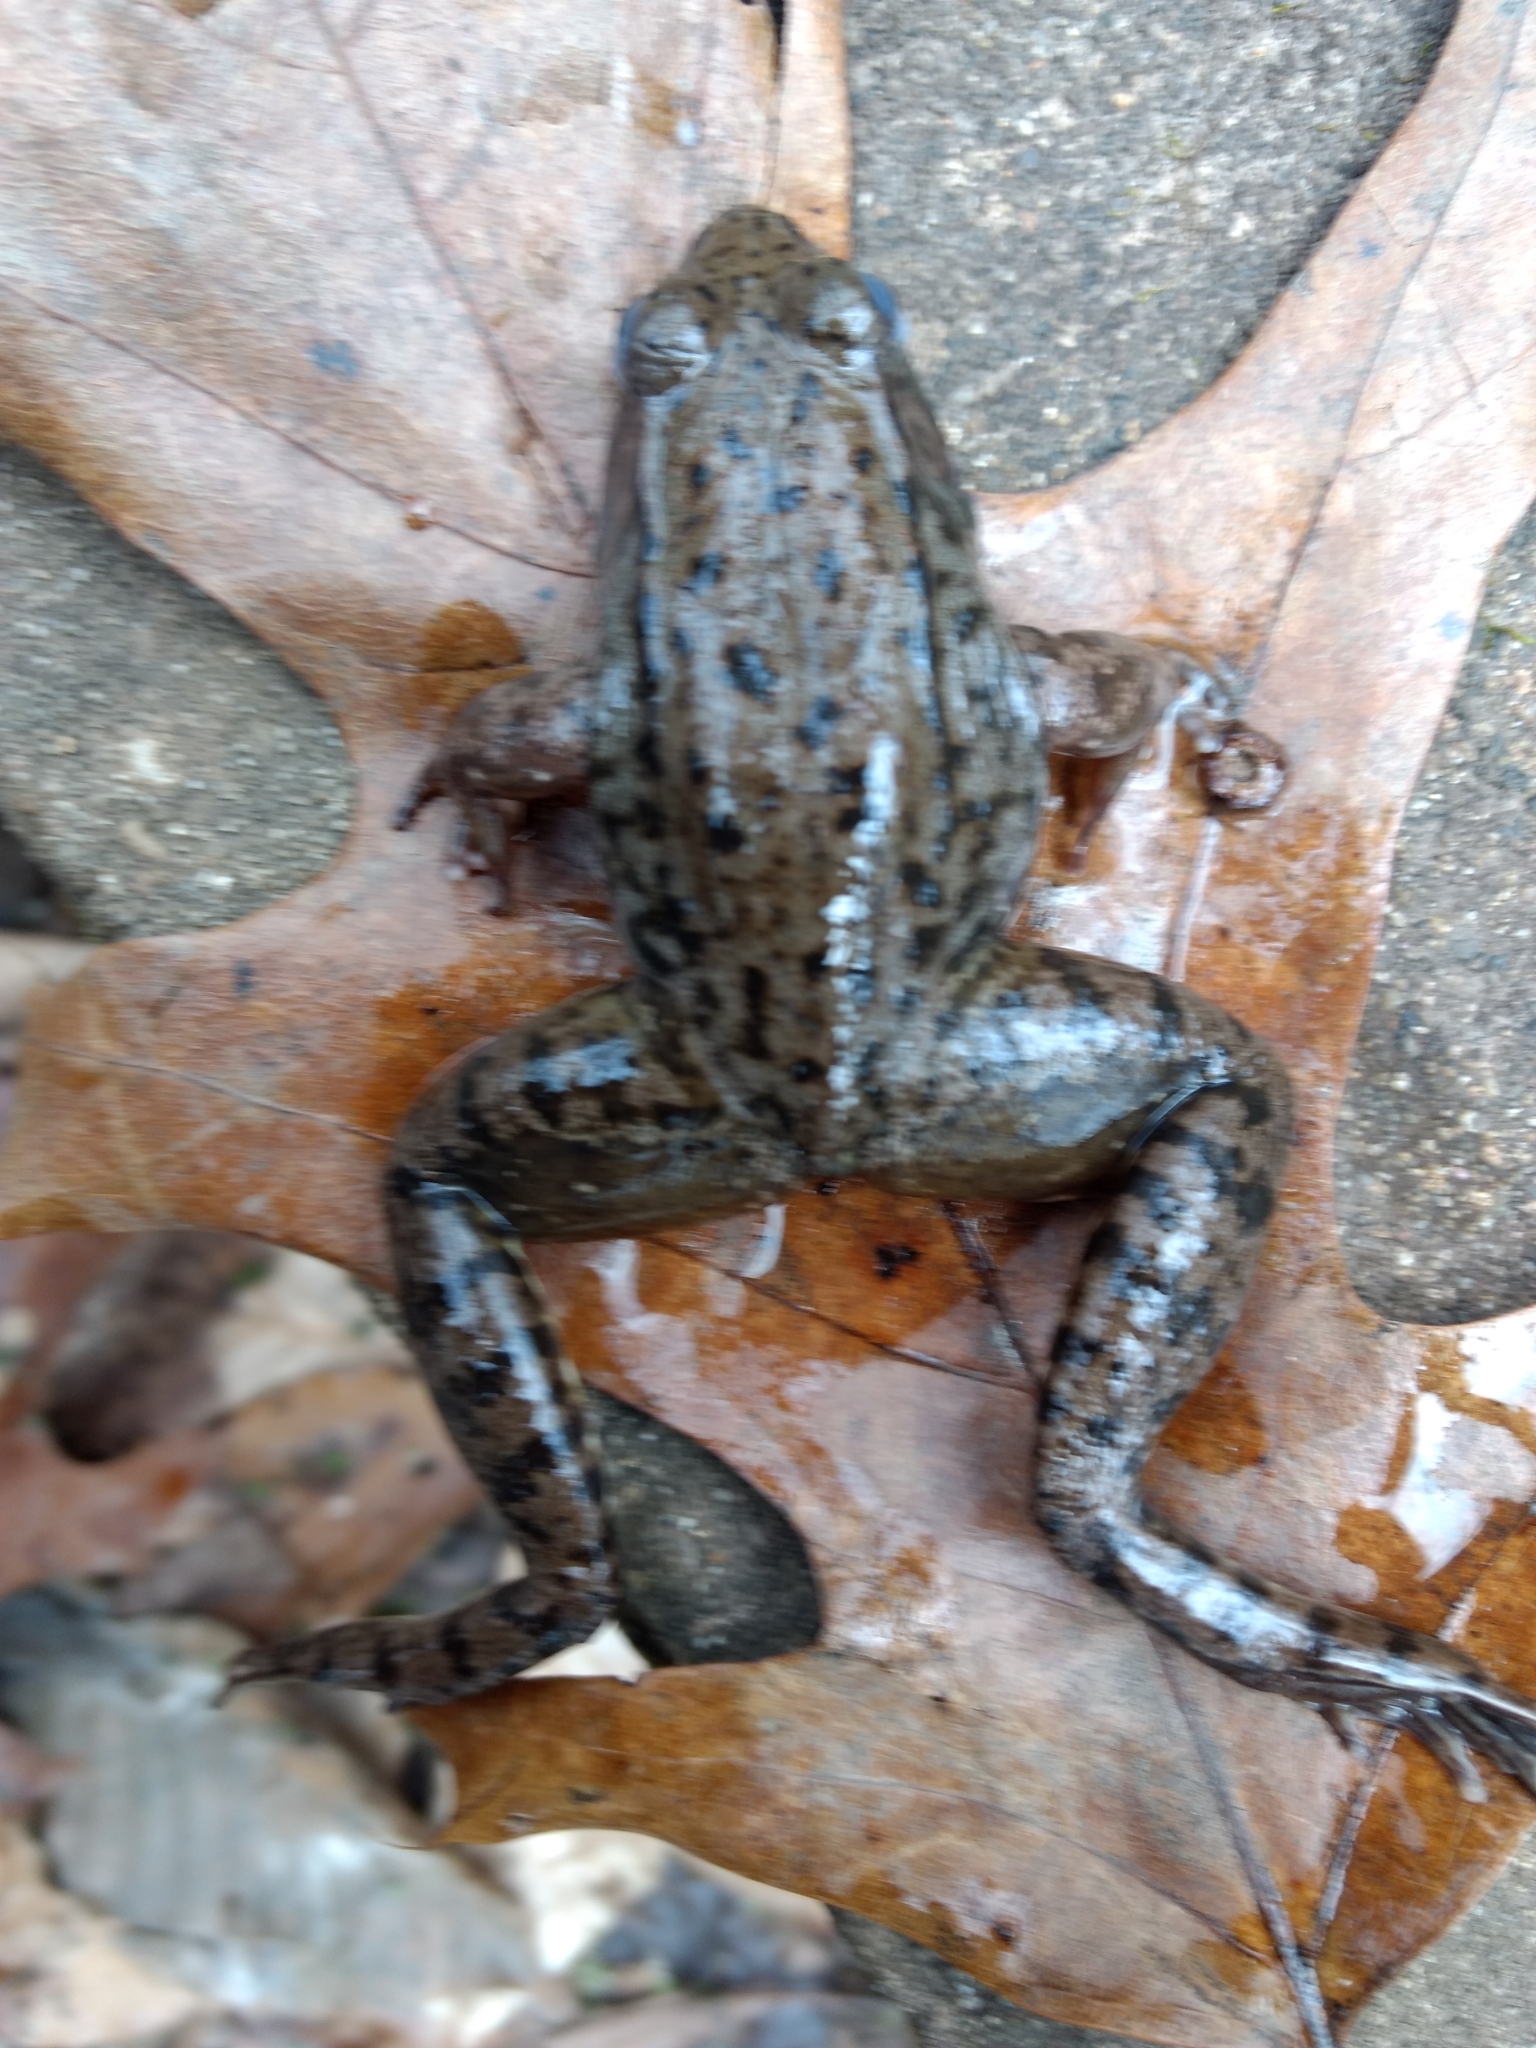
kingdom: Animalia
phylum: Chordata
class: Amphibia
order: Anura
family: Ranidae
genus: Lithobates
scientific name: Lithobates clamitans
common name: Green frog
